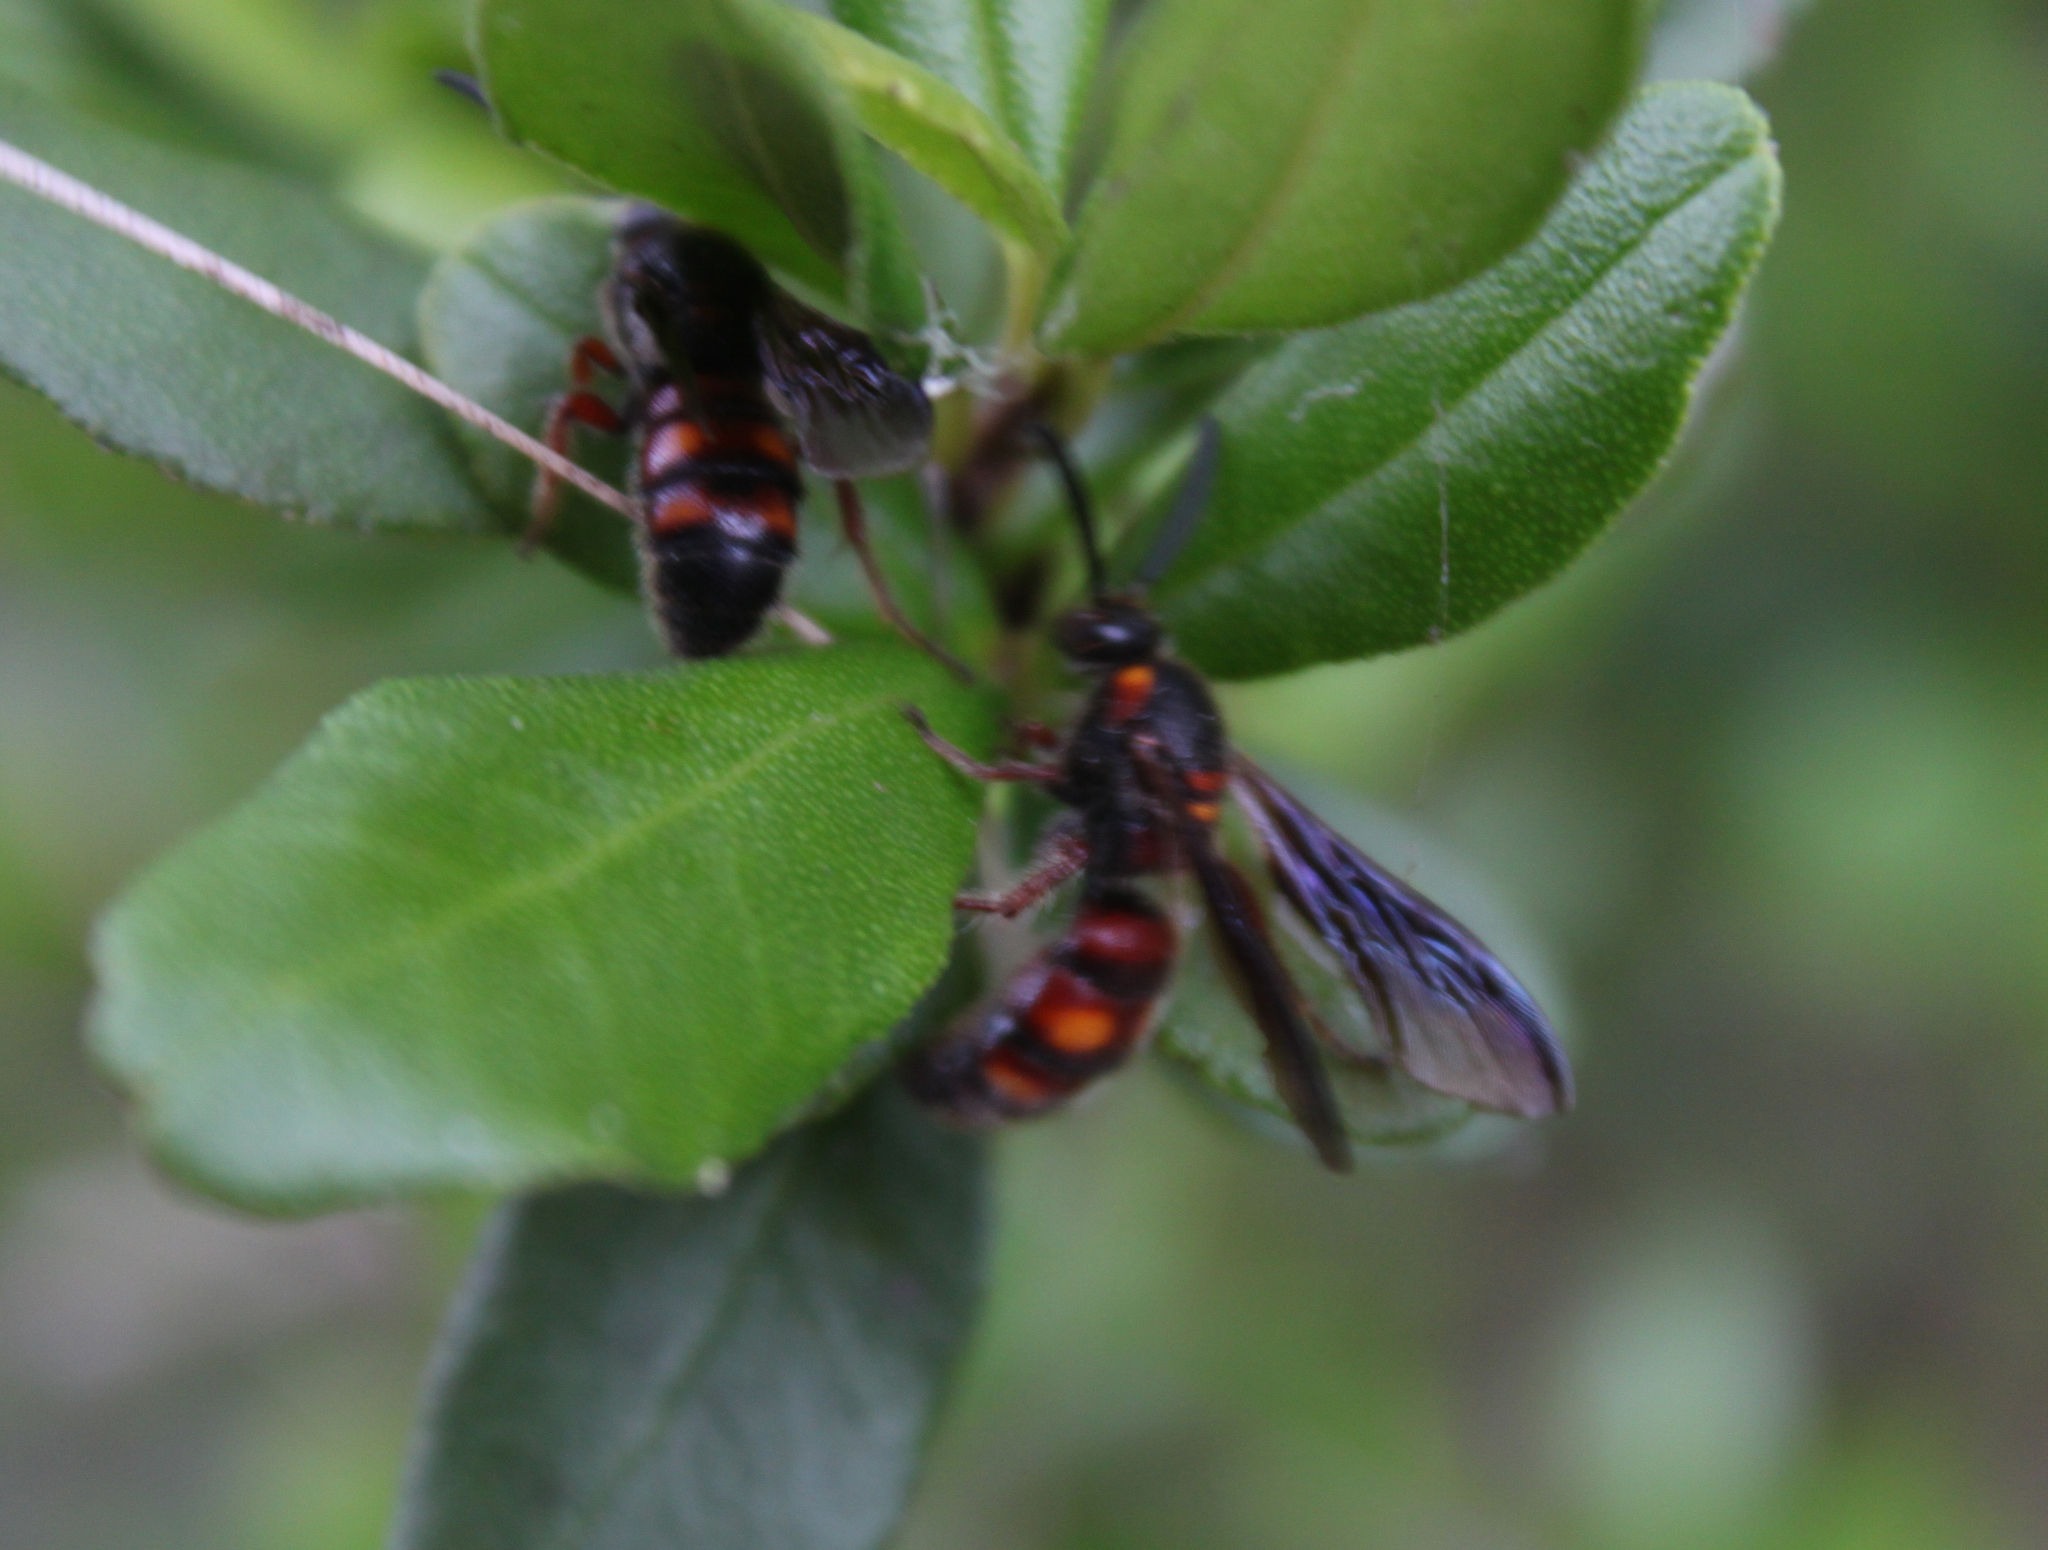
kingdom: Animalia
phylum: Arthropoda
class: Insecta
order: Hymenoptera
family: Scoliidae
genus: Scolia
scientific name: Scolia nobilitata
